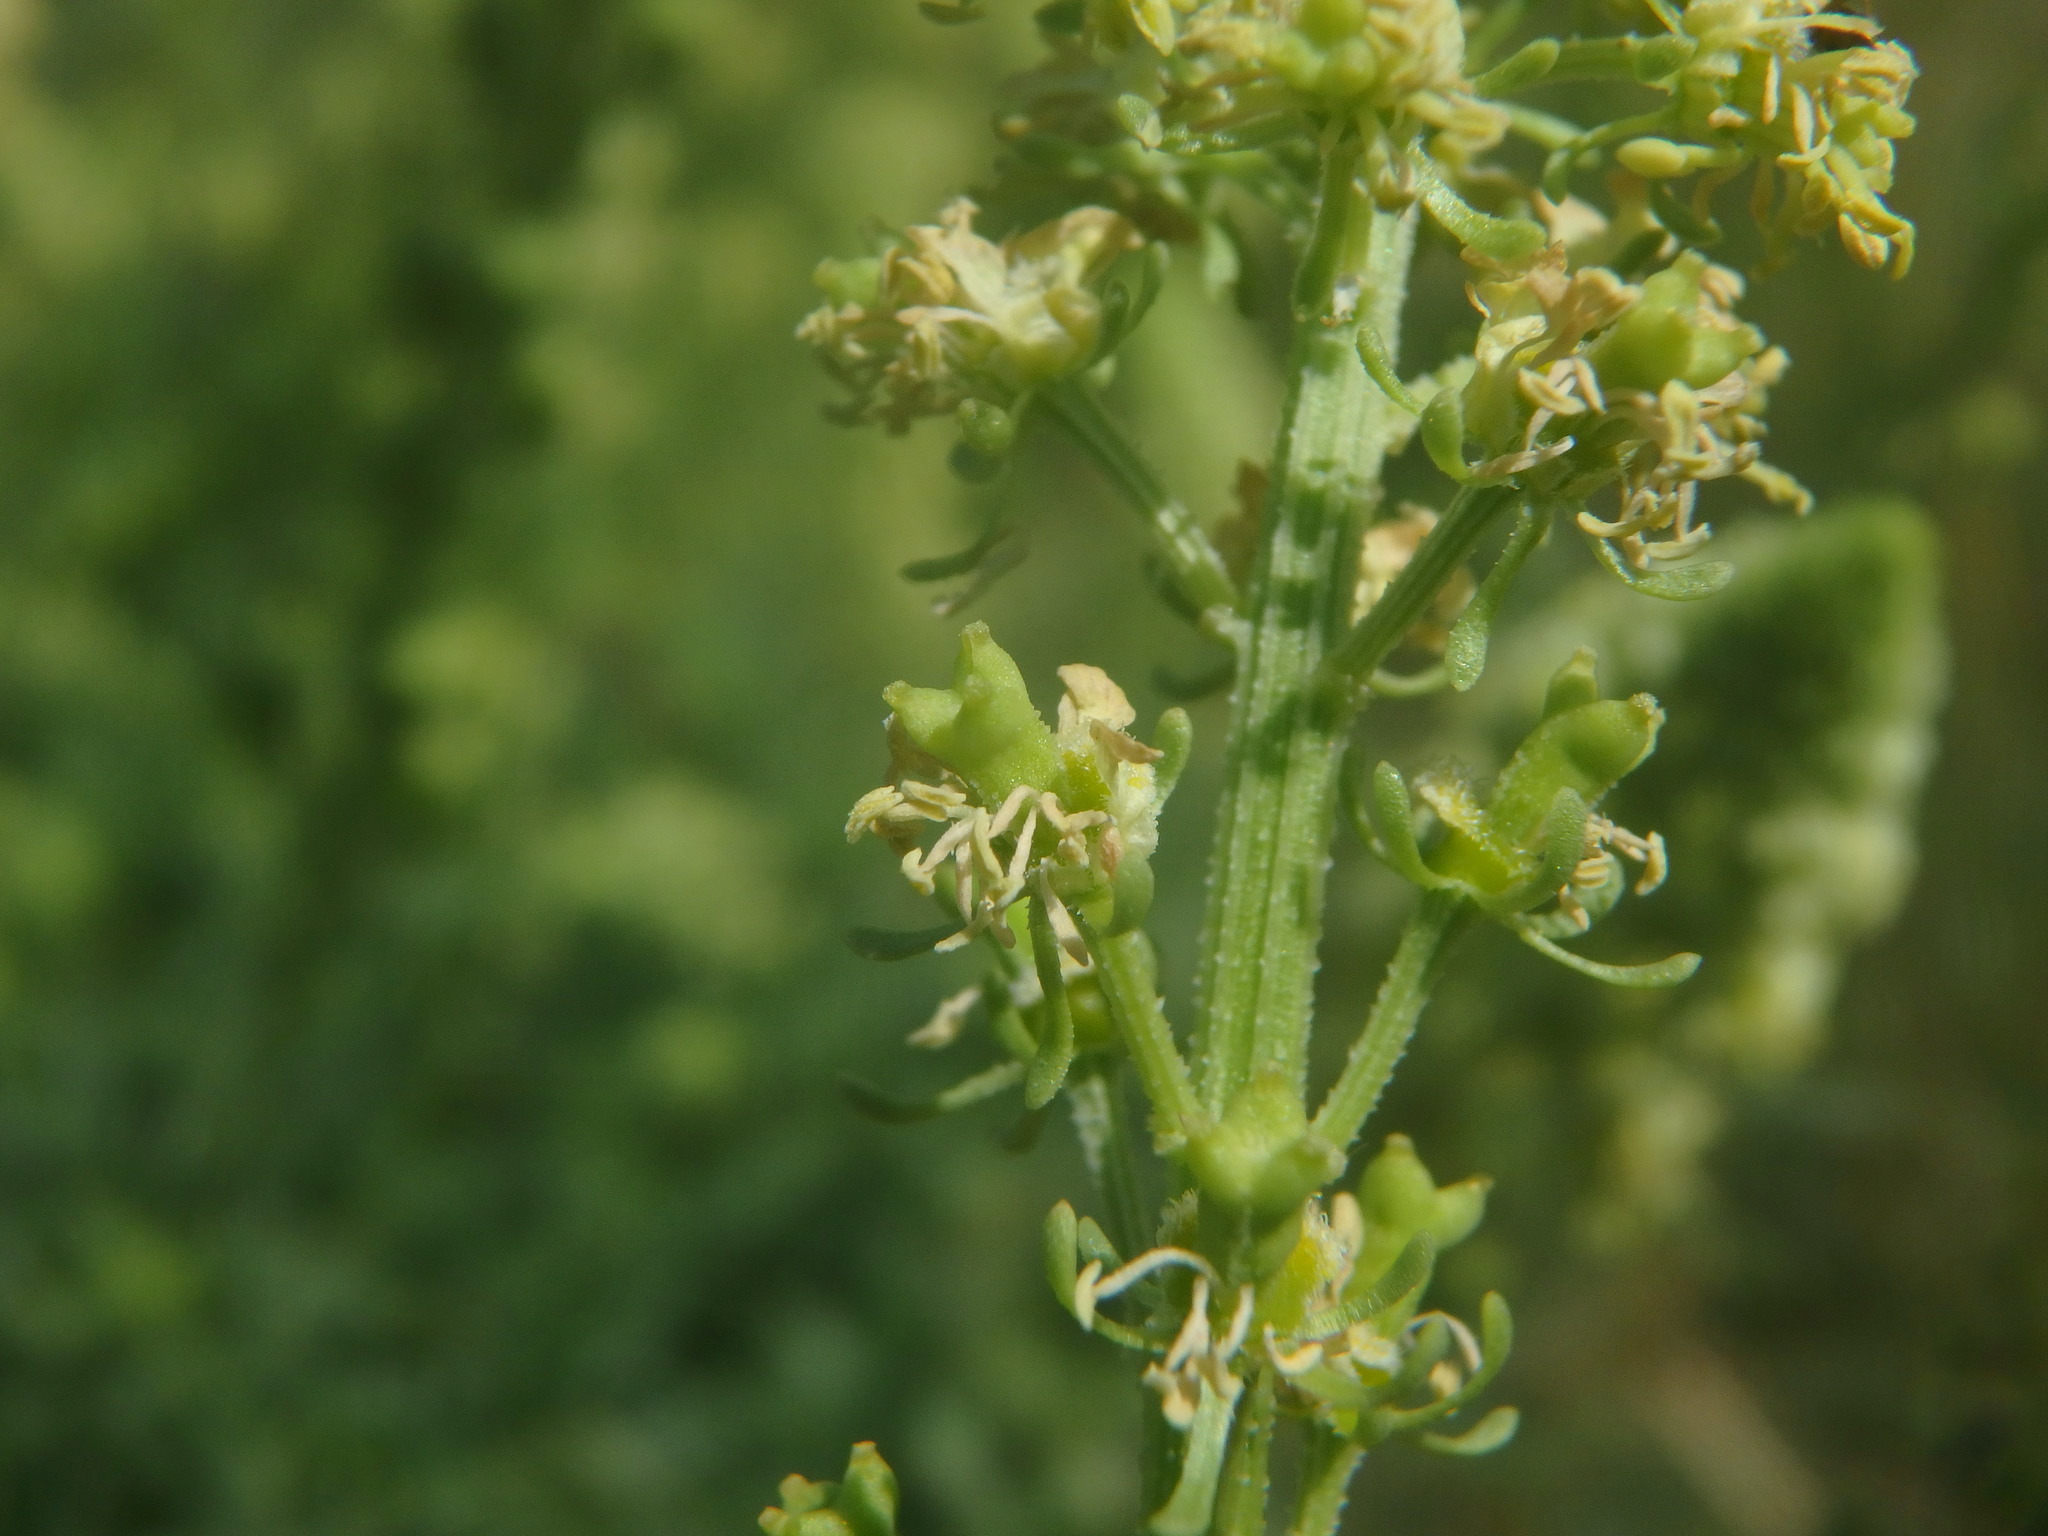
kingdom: Plantae
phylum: Tracheophyta
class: Magnoliopsida
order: Brassicales
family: Resedaceae
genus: Reseda
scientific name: Reseda lutea
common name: Wild mignonette
